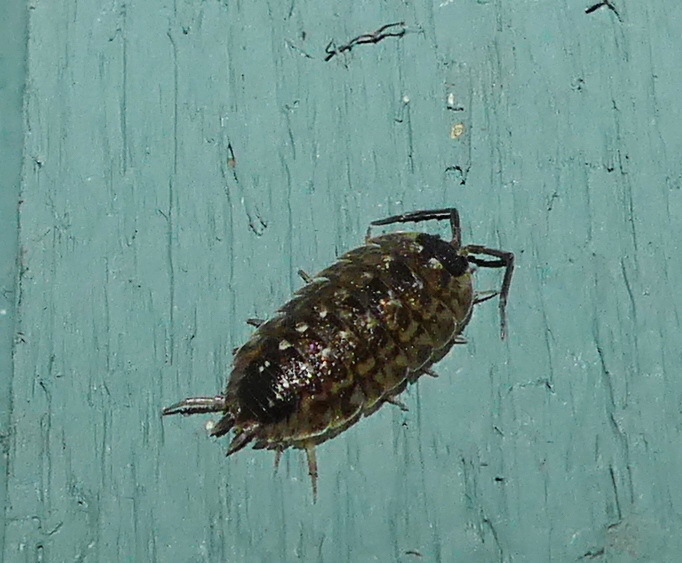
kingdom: Animalia
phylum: Arthropoda
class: Malacostraca
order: Isopoda
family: Porcellionidae
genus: Porcellio
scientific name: Porcellio spinicornis
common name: Painted woodlouse
